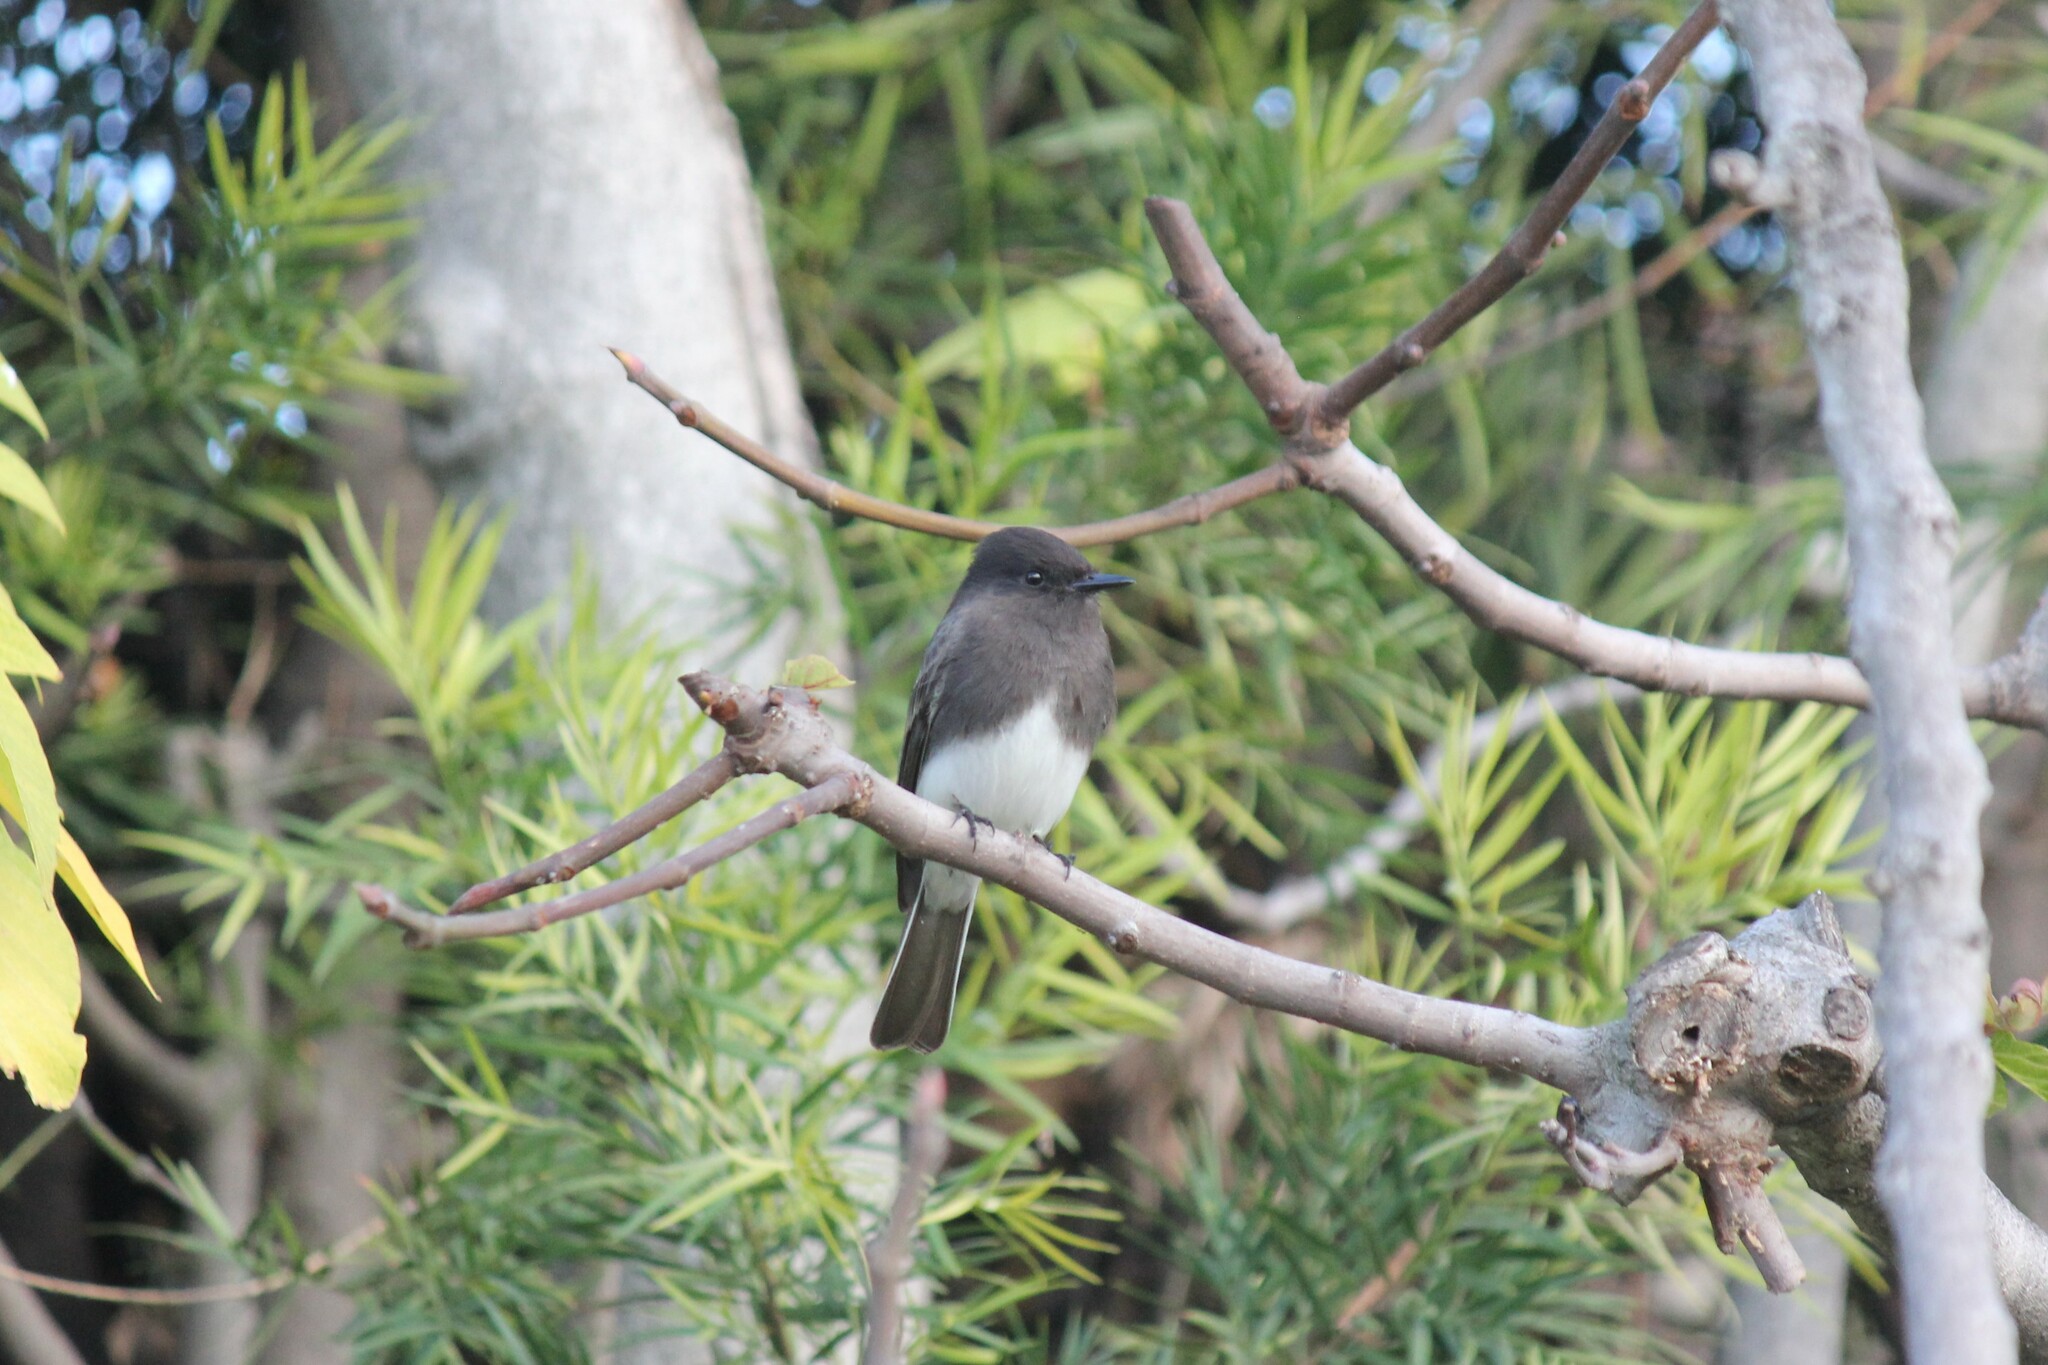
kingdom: Animalia
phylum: Chordata
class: Aves
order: Passeriformes
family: Tyrannidae
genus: Sayornis
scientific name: Sayornis nigricans
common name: Black phoebe
